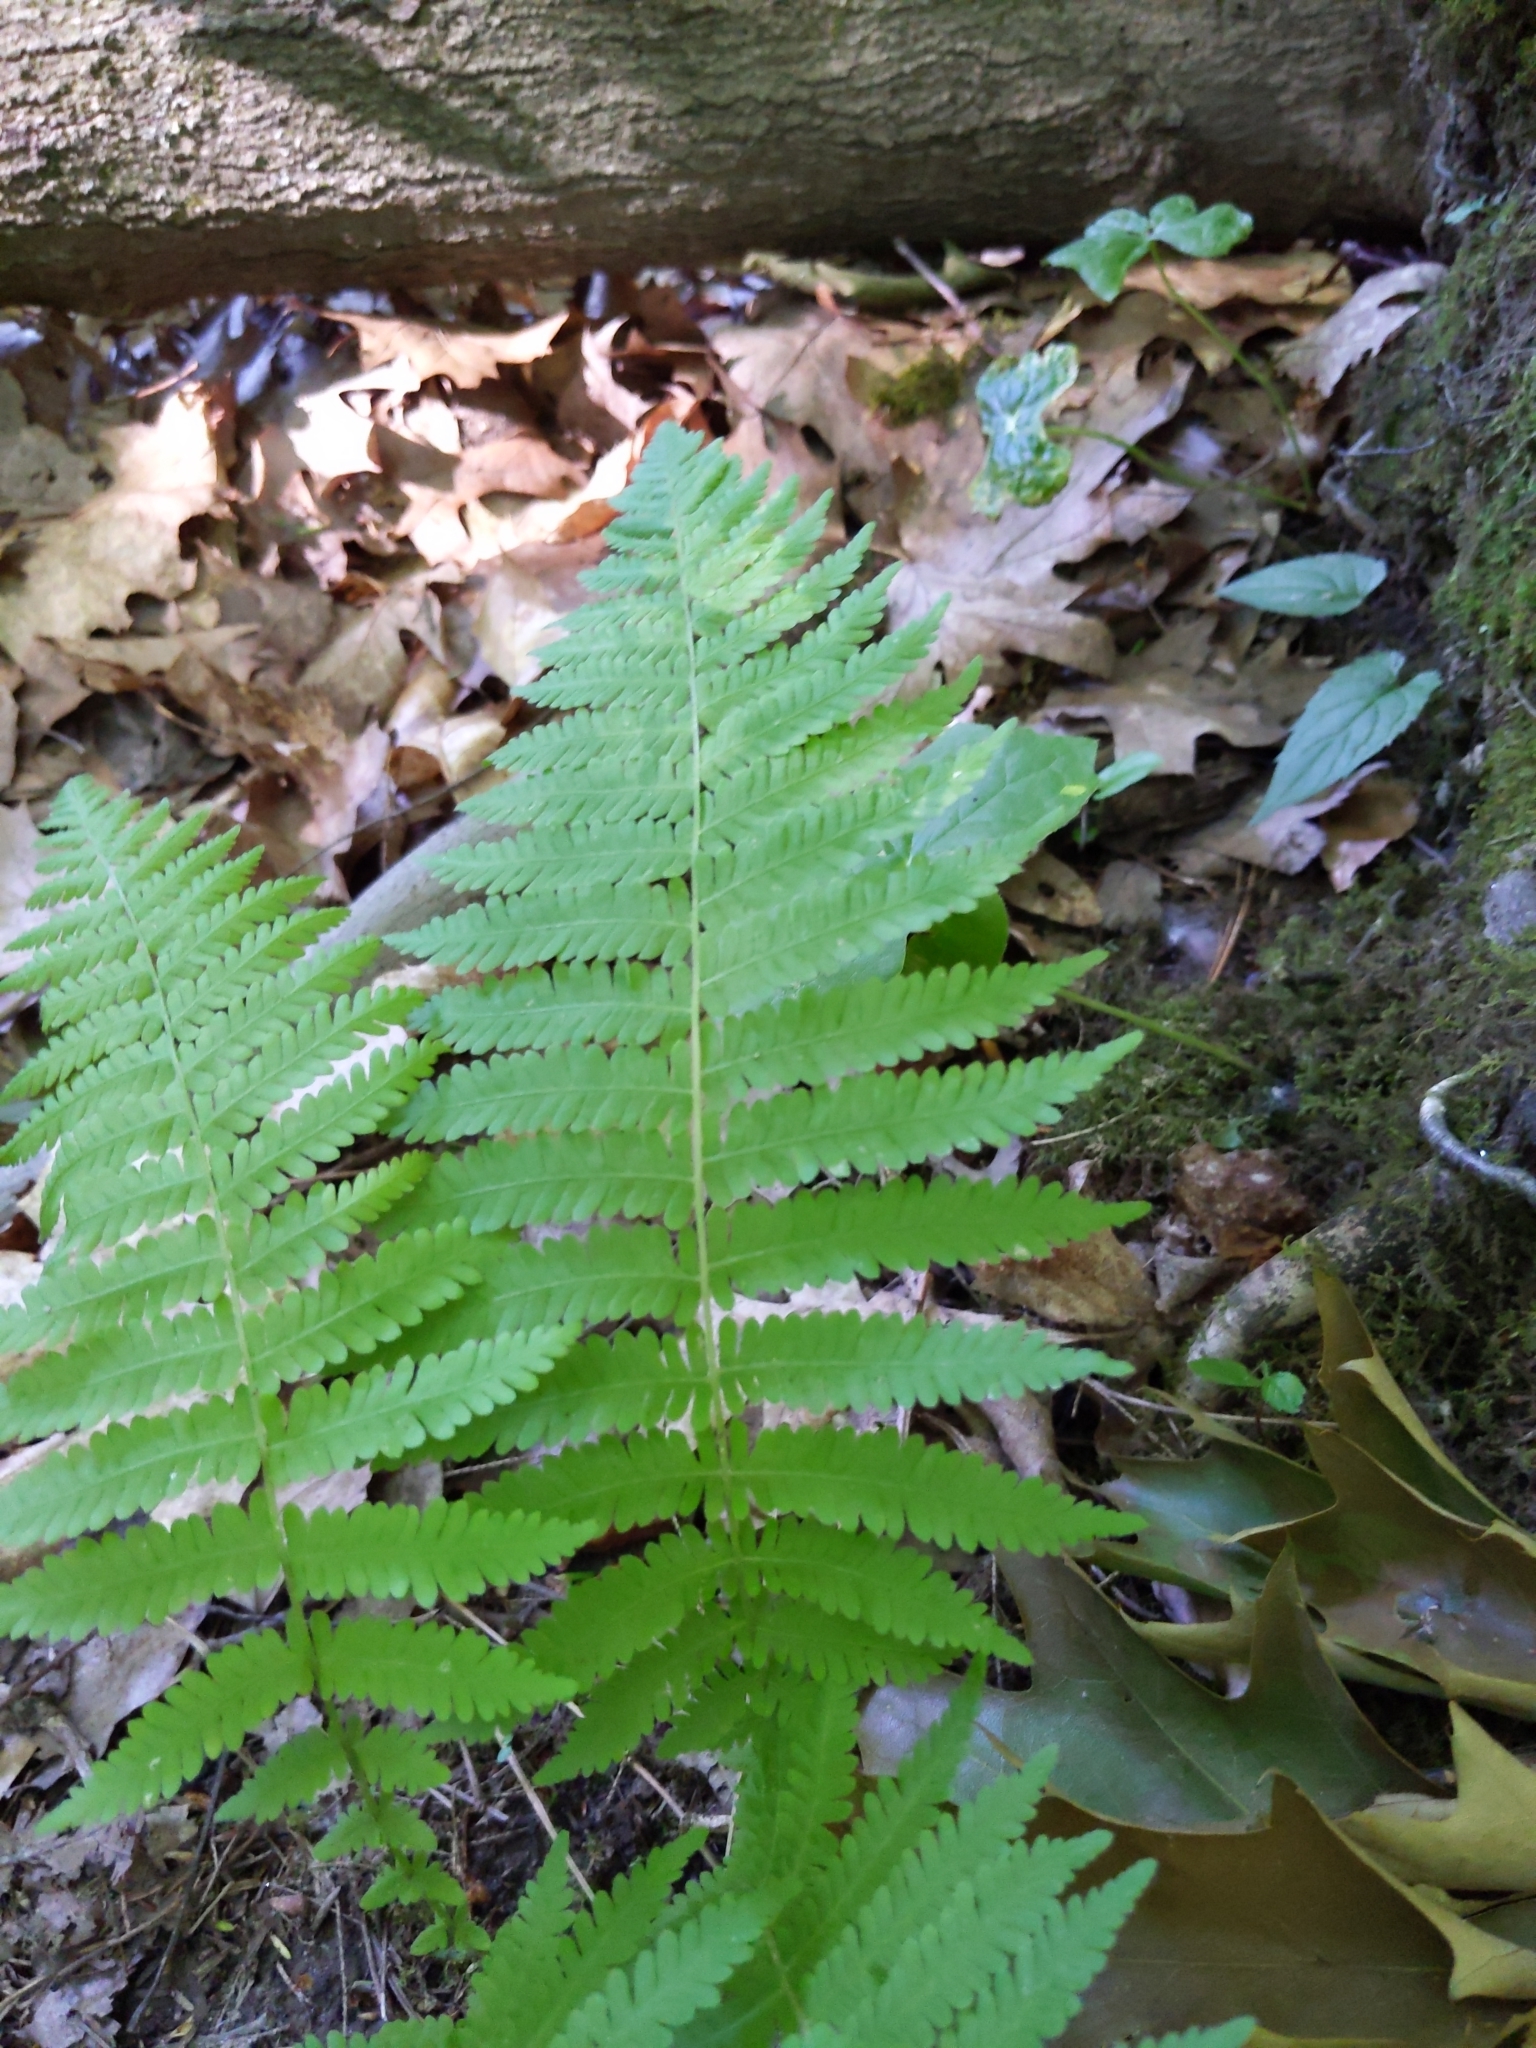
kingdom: Plantae
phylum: Tracheophyta
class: Polypodiopsida
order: Polypodiales
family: Thelypteridaceae
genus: Amauropelta
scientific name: Amauropelta noveboracensis
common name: New york fern
